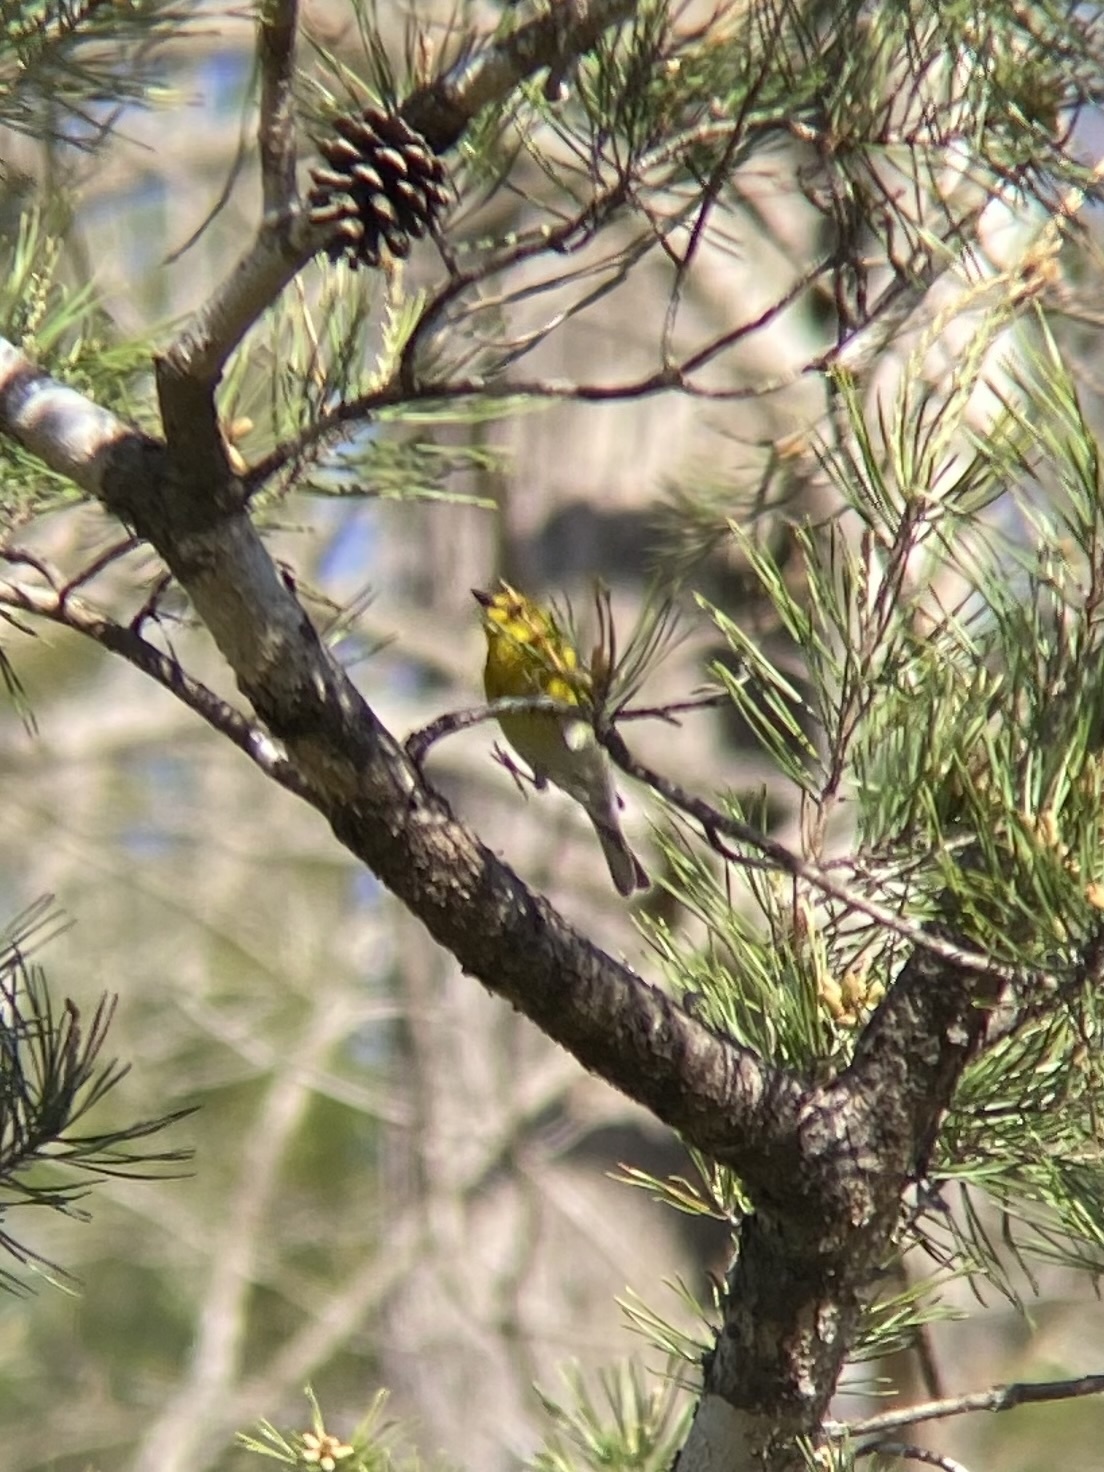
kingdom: Animalia
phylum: Chordata
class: Aves
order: Passeriformes
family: Parulidae
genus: Setophaga
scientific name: Setophaga pinus
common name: Pine warbler
